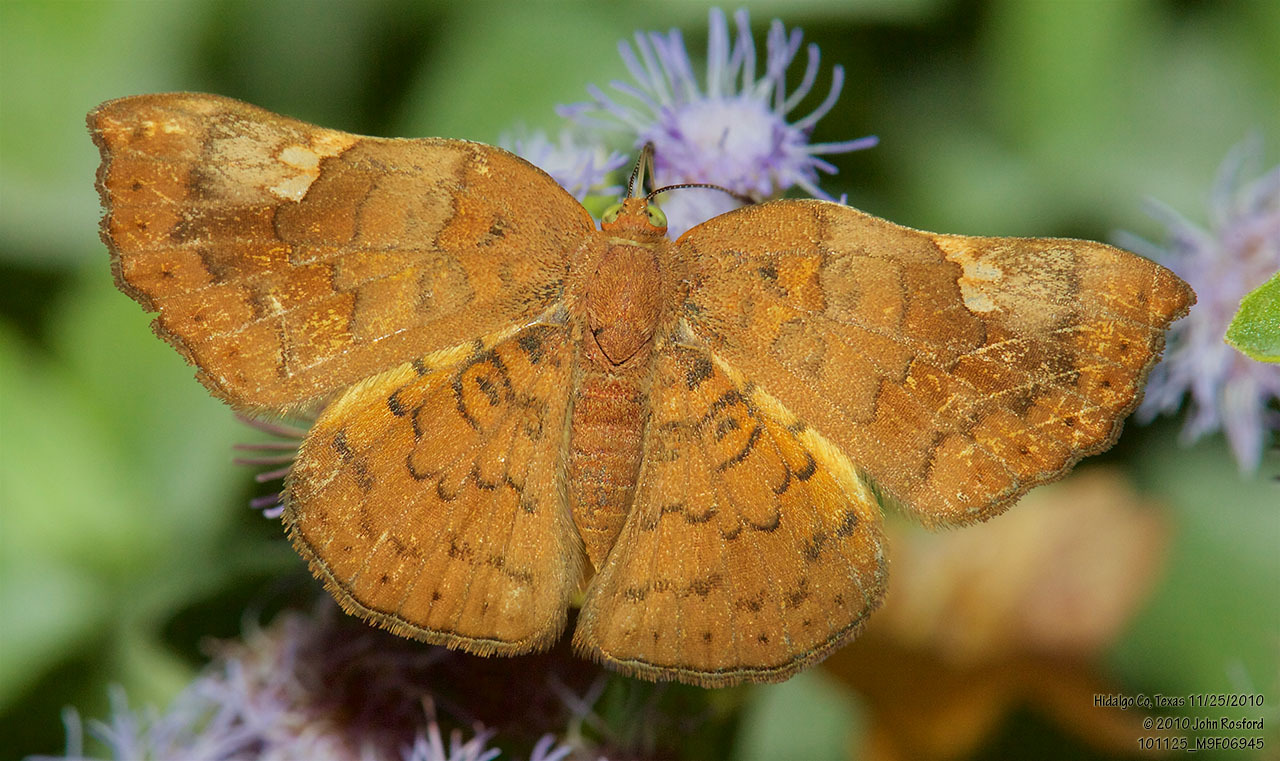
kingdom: Animalia
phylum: Arthropoda
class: Insecta
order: Lepidoptera
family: Riodinidae
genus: Curvie
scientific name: Curvie emesia
